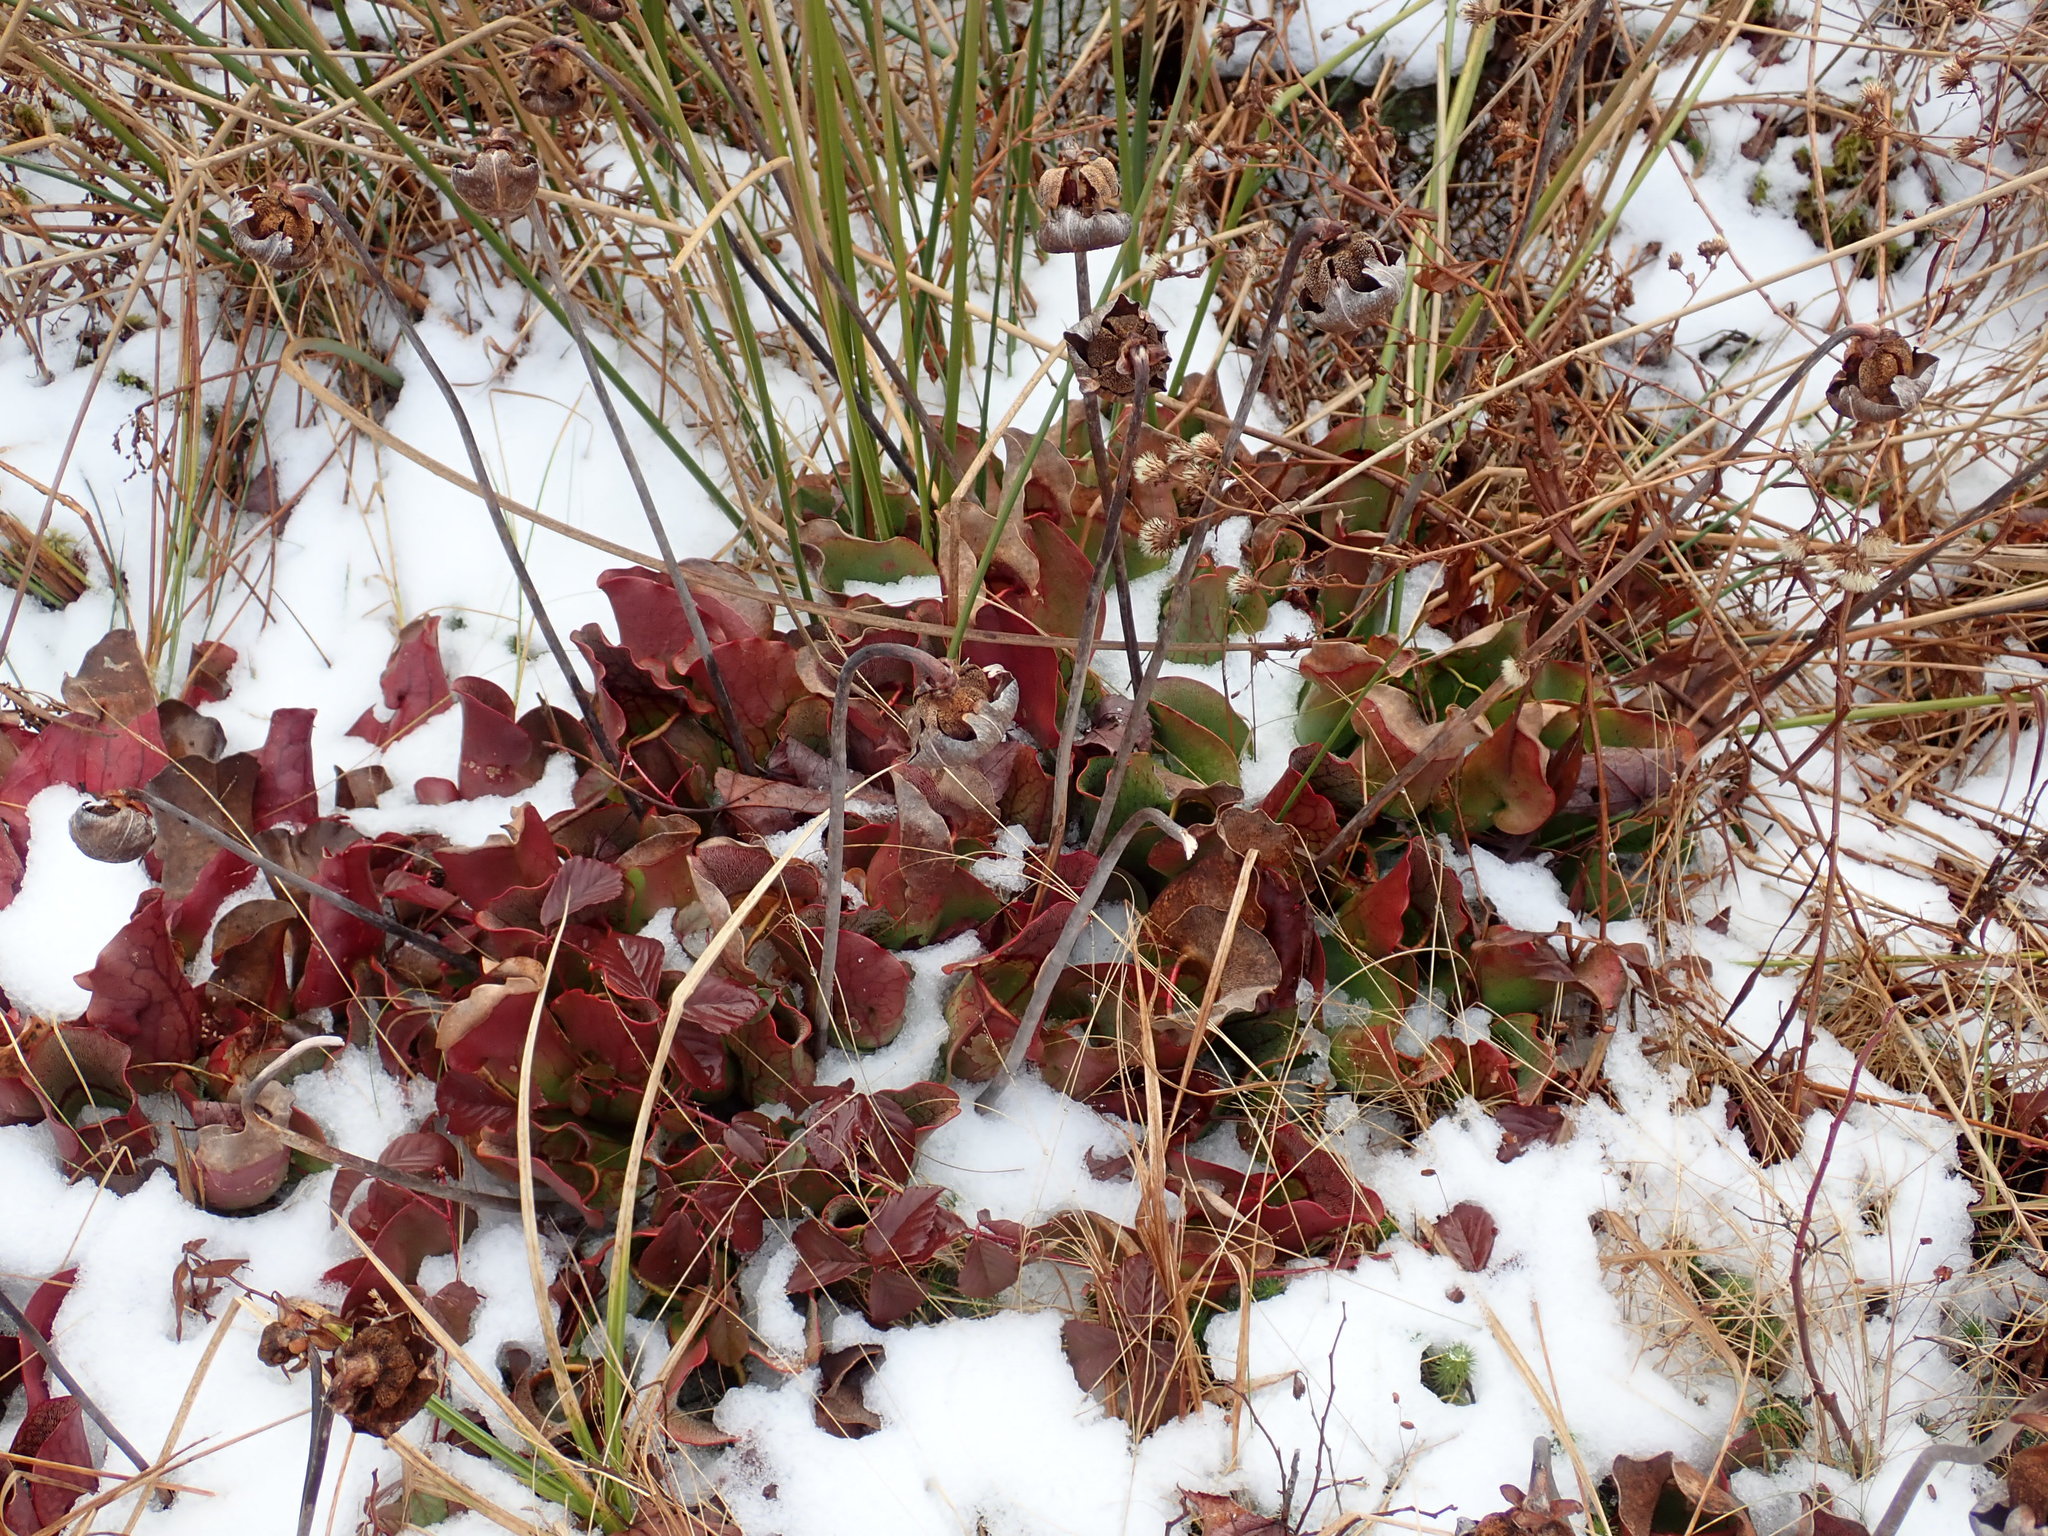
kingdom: Plantae
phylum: Tracheophyta
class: Magnoliopsida
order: Ericales
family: Sarraceniaceae
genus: Sarracenia
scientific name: Sarracenia purpurea
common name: Pitcherplant
